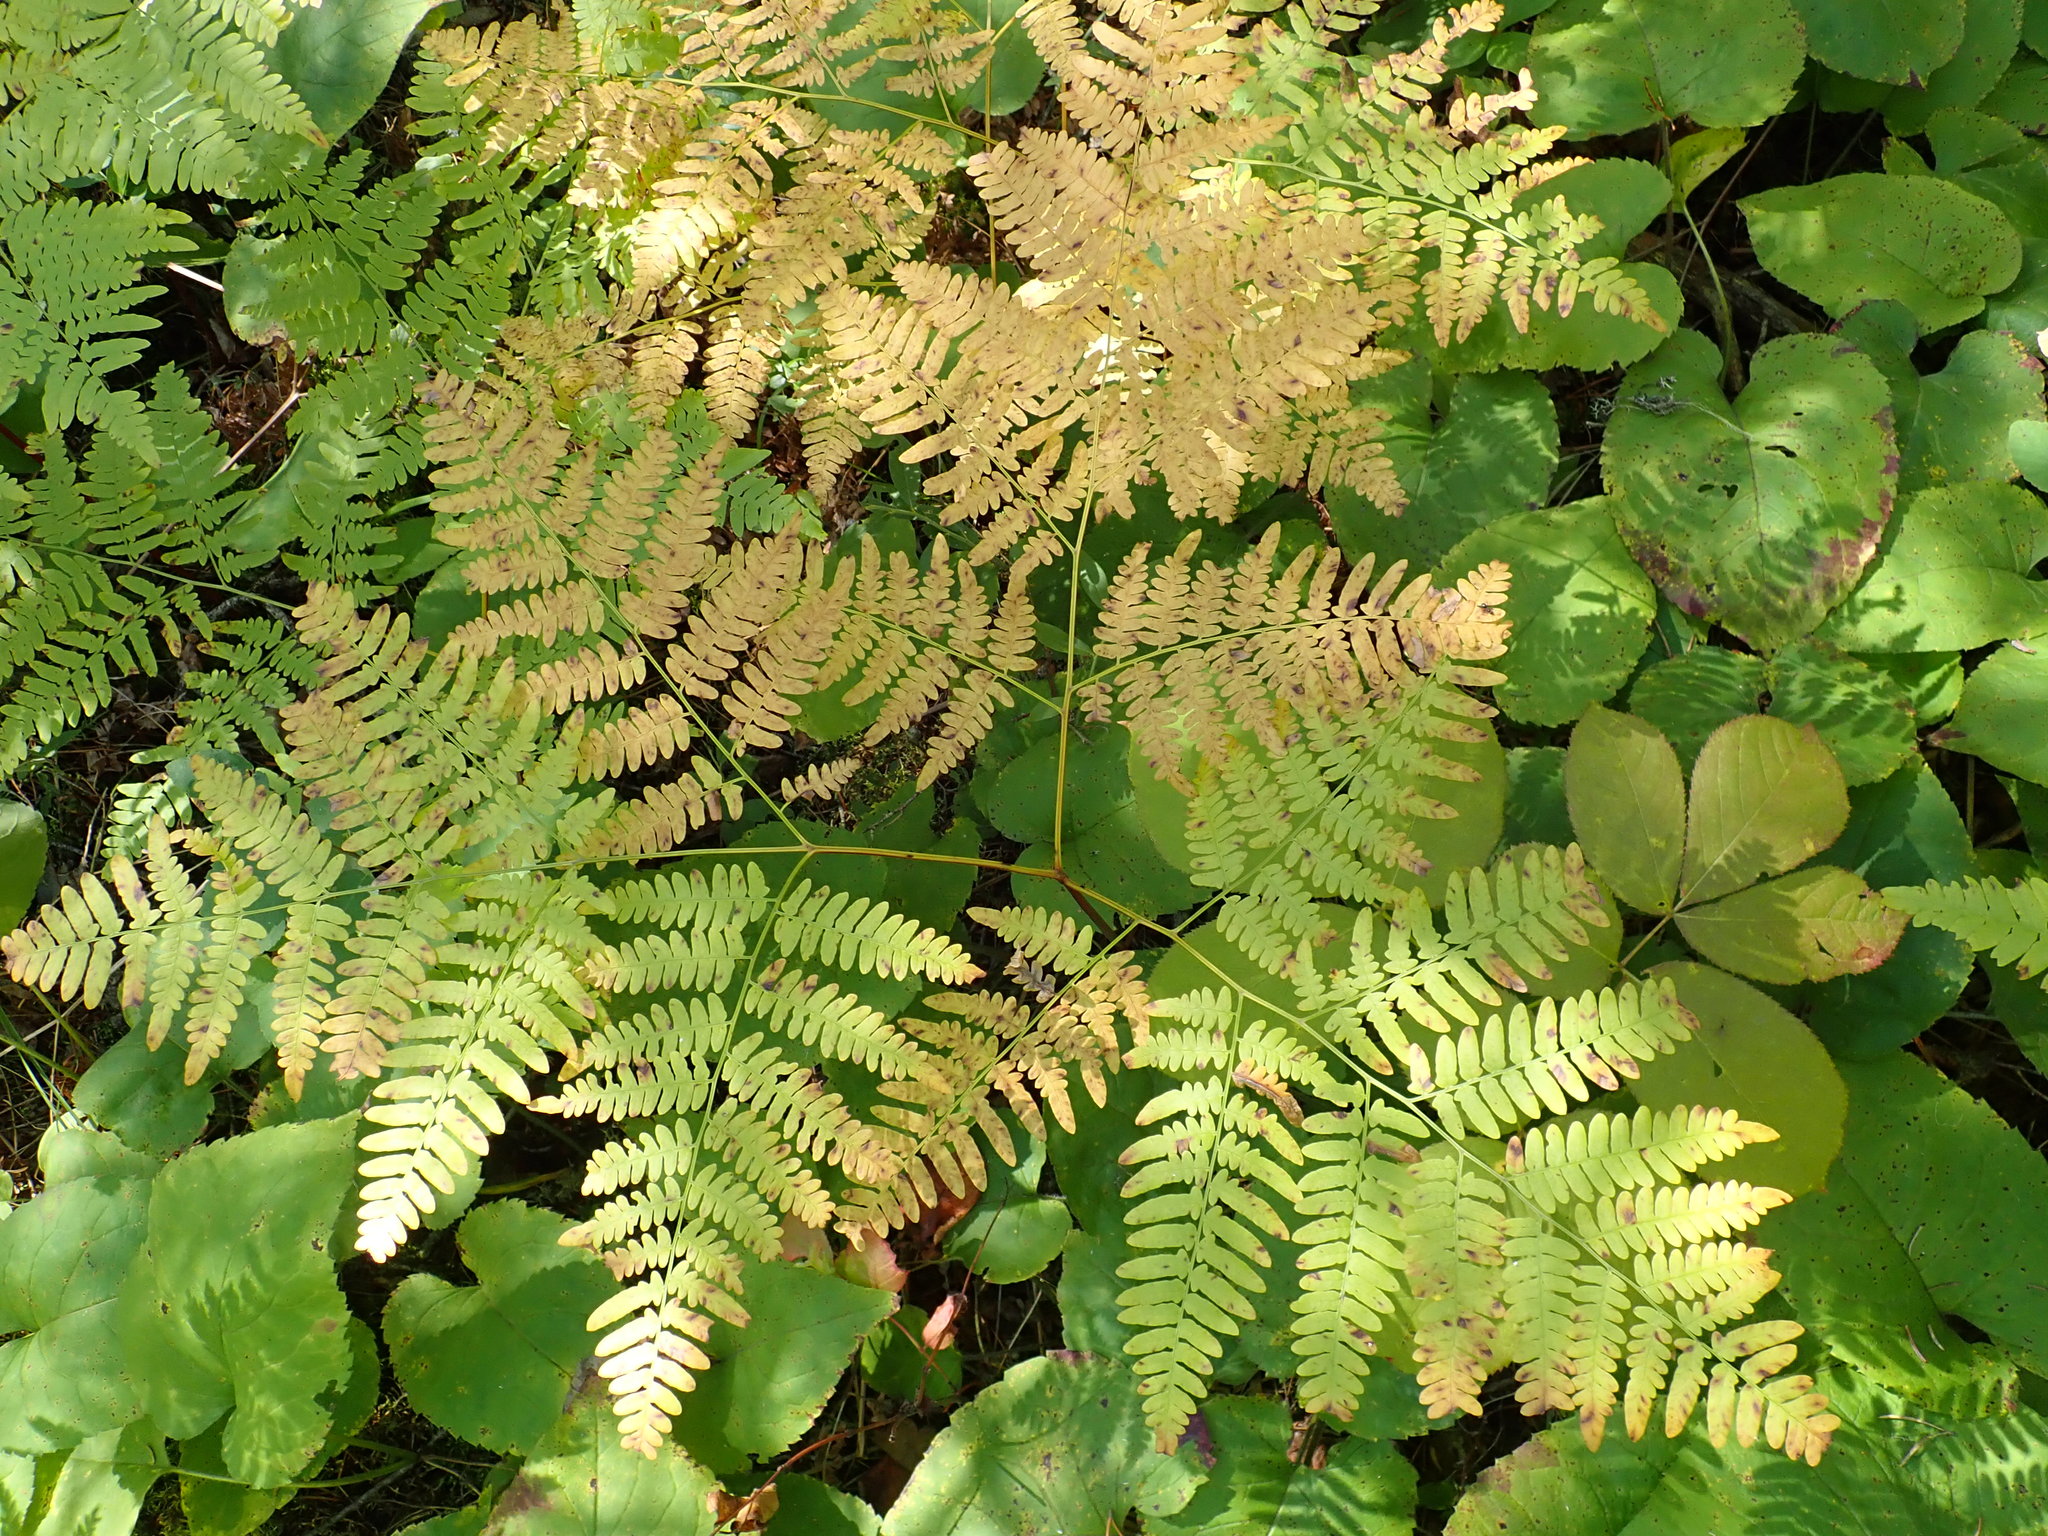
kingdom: Plantae
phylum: Tracheophyta
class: Polypodiopsida
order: Polypodiales
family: Dennstaedtiaceae
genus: Pteridium
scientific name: Pteridium aquilinum
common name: Bracken
